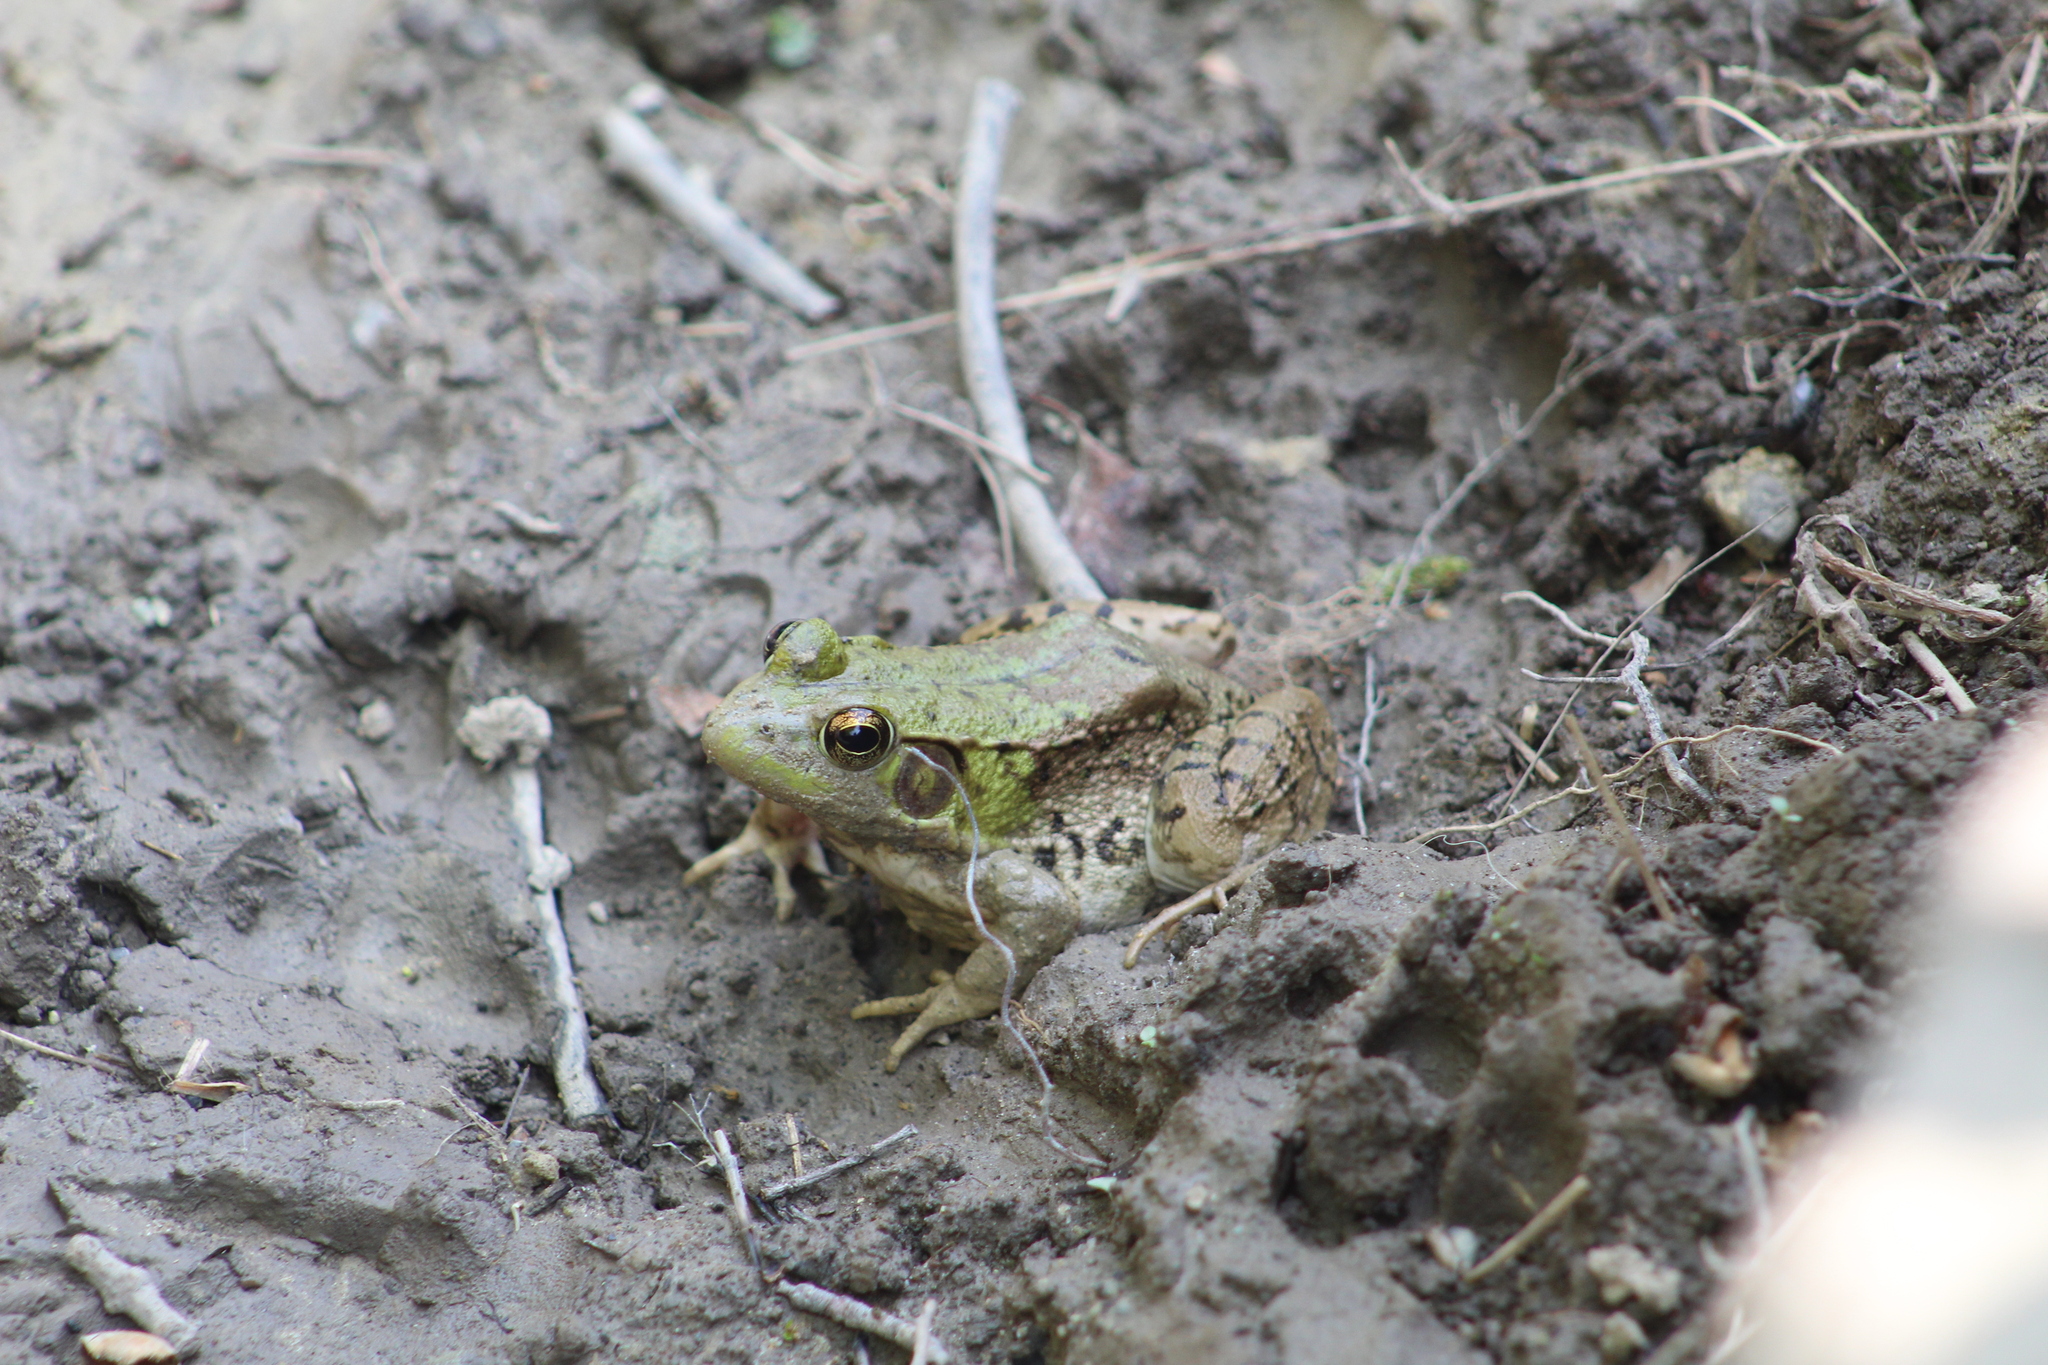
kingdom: Animalia
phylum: Chordata
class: Amphibia
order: Anura
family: Ranidae
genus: Lithobates
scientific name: Lithobates clamitans
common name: Green frog
